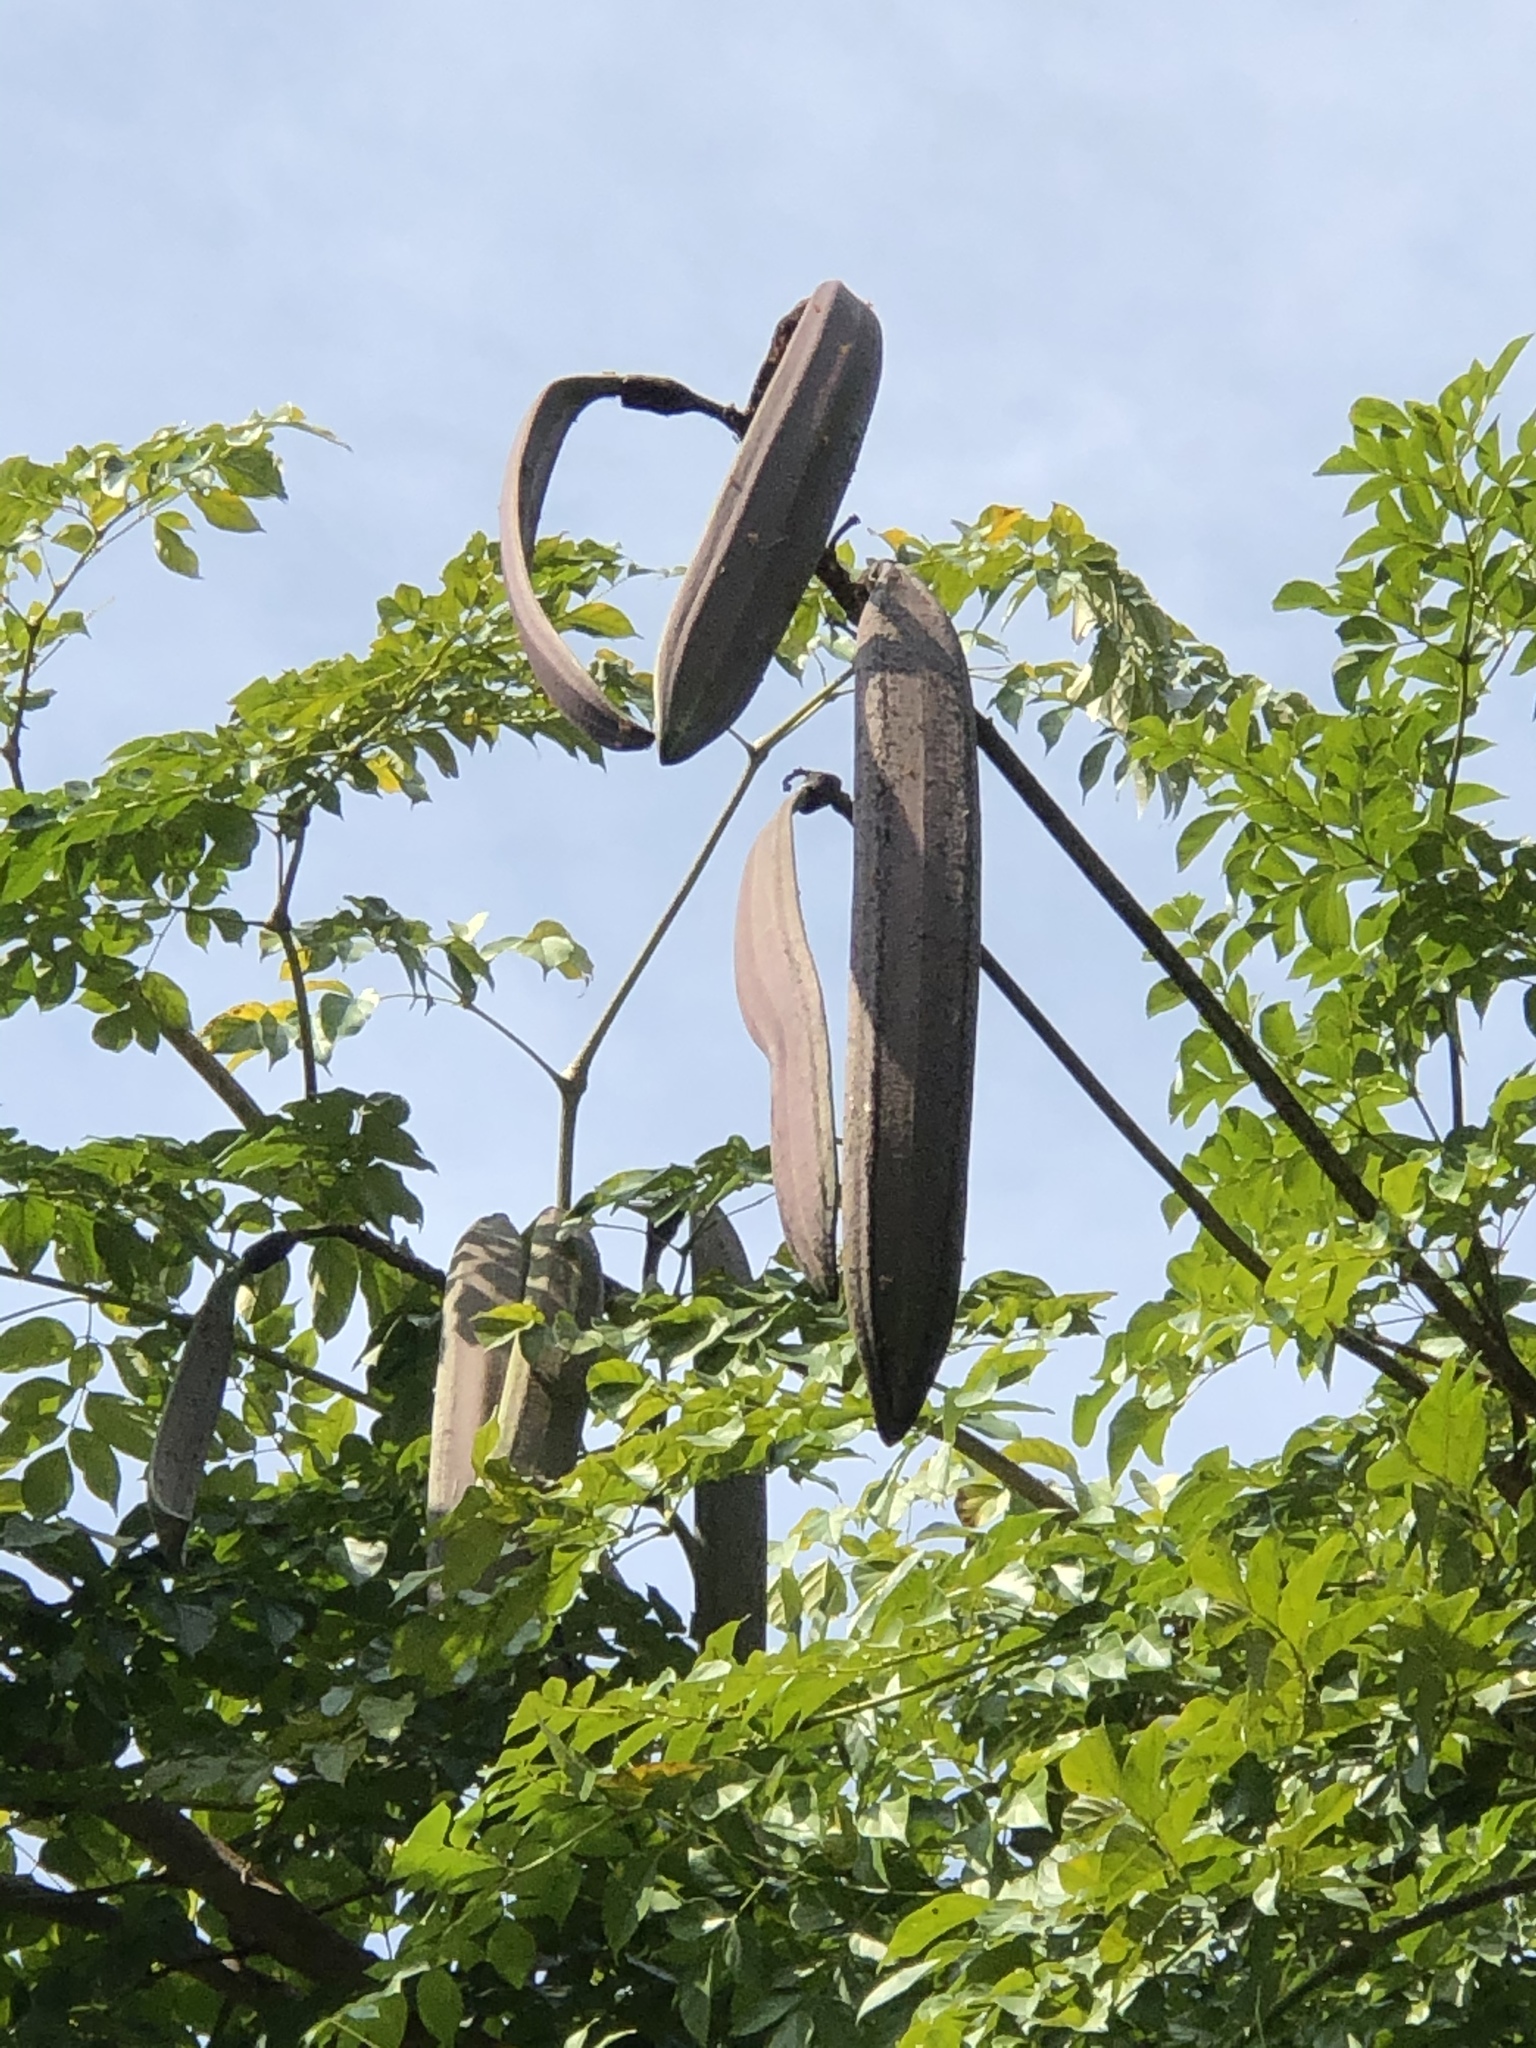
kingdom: Plantae
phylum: Tracheophyta
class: Magnoliopsida
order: Lamiales
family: Bignoniaceae
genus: Oroxylum
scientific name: Oroxylum indicum
